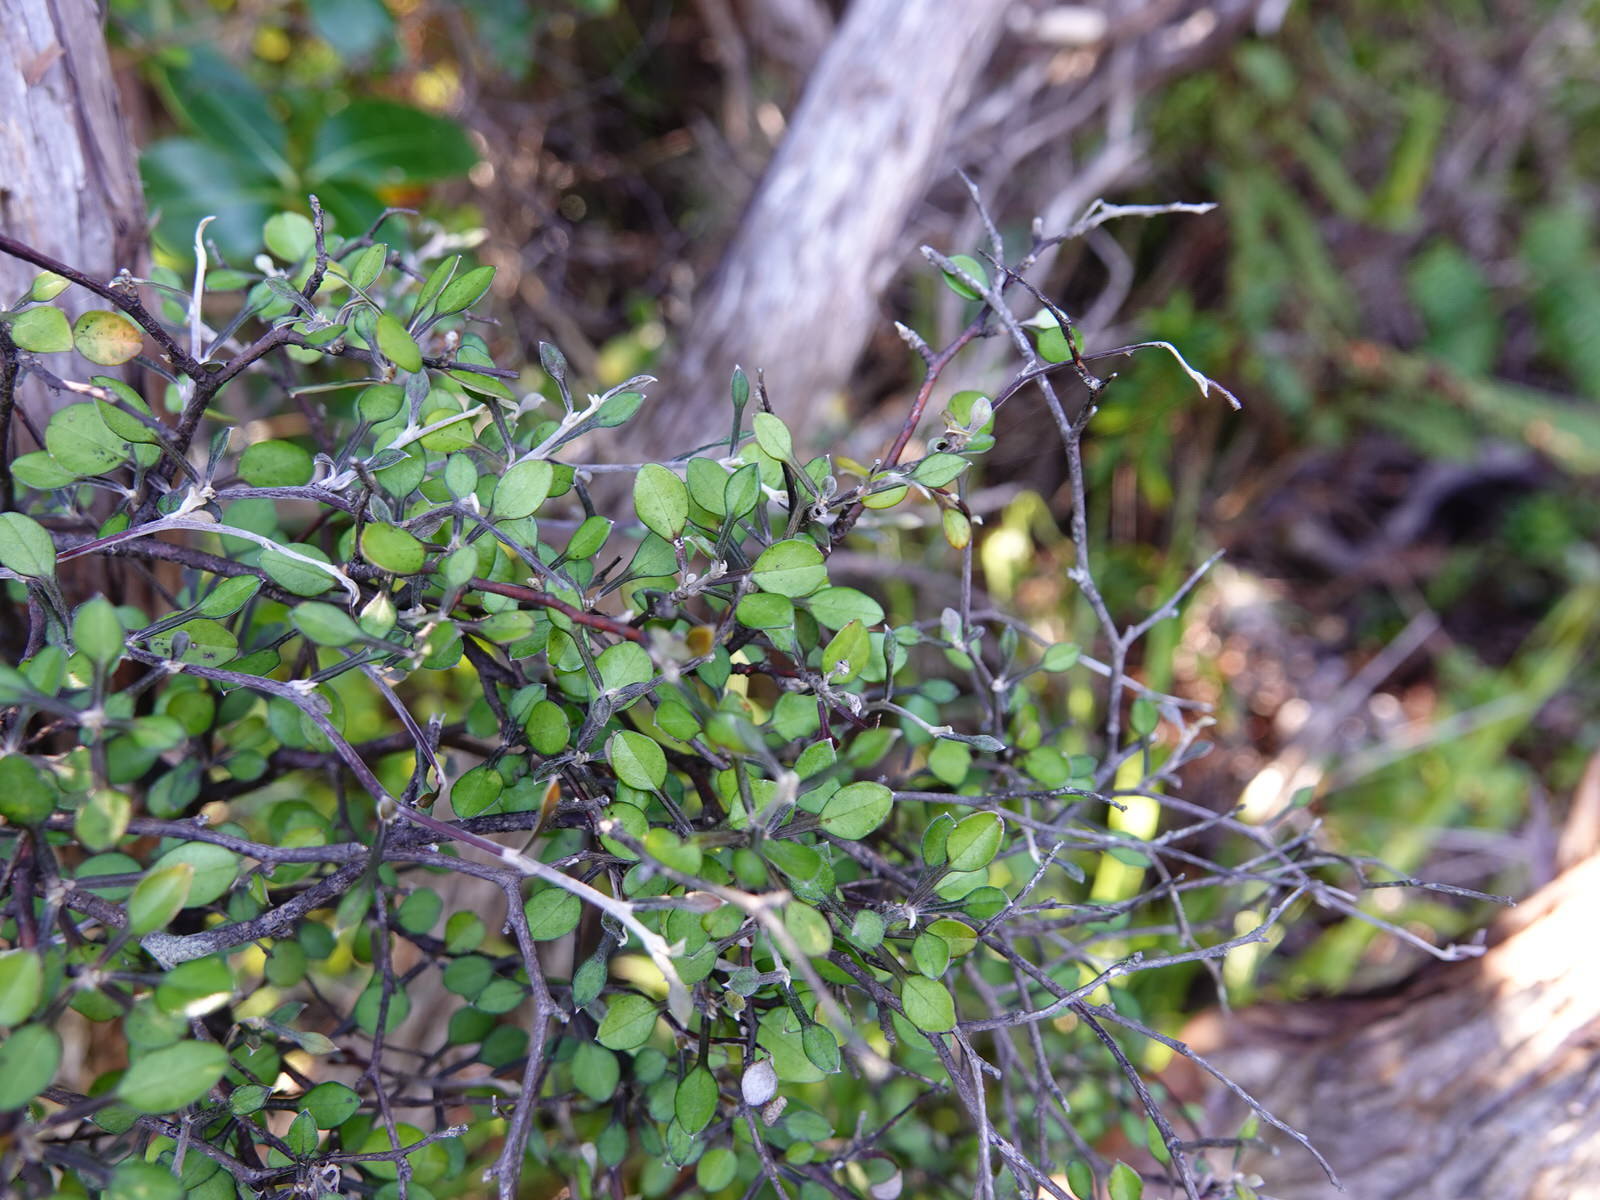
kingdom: Plantae
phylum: Tracheophyta
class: Magnoliopsida
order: Asterales
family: Argophyllaceae
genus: Corokia
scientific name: Corokia cotoneaster
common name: Wire nettingbush
